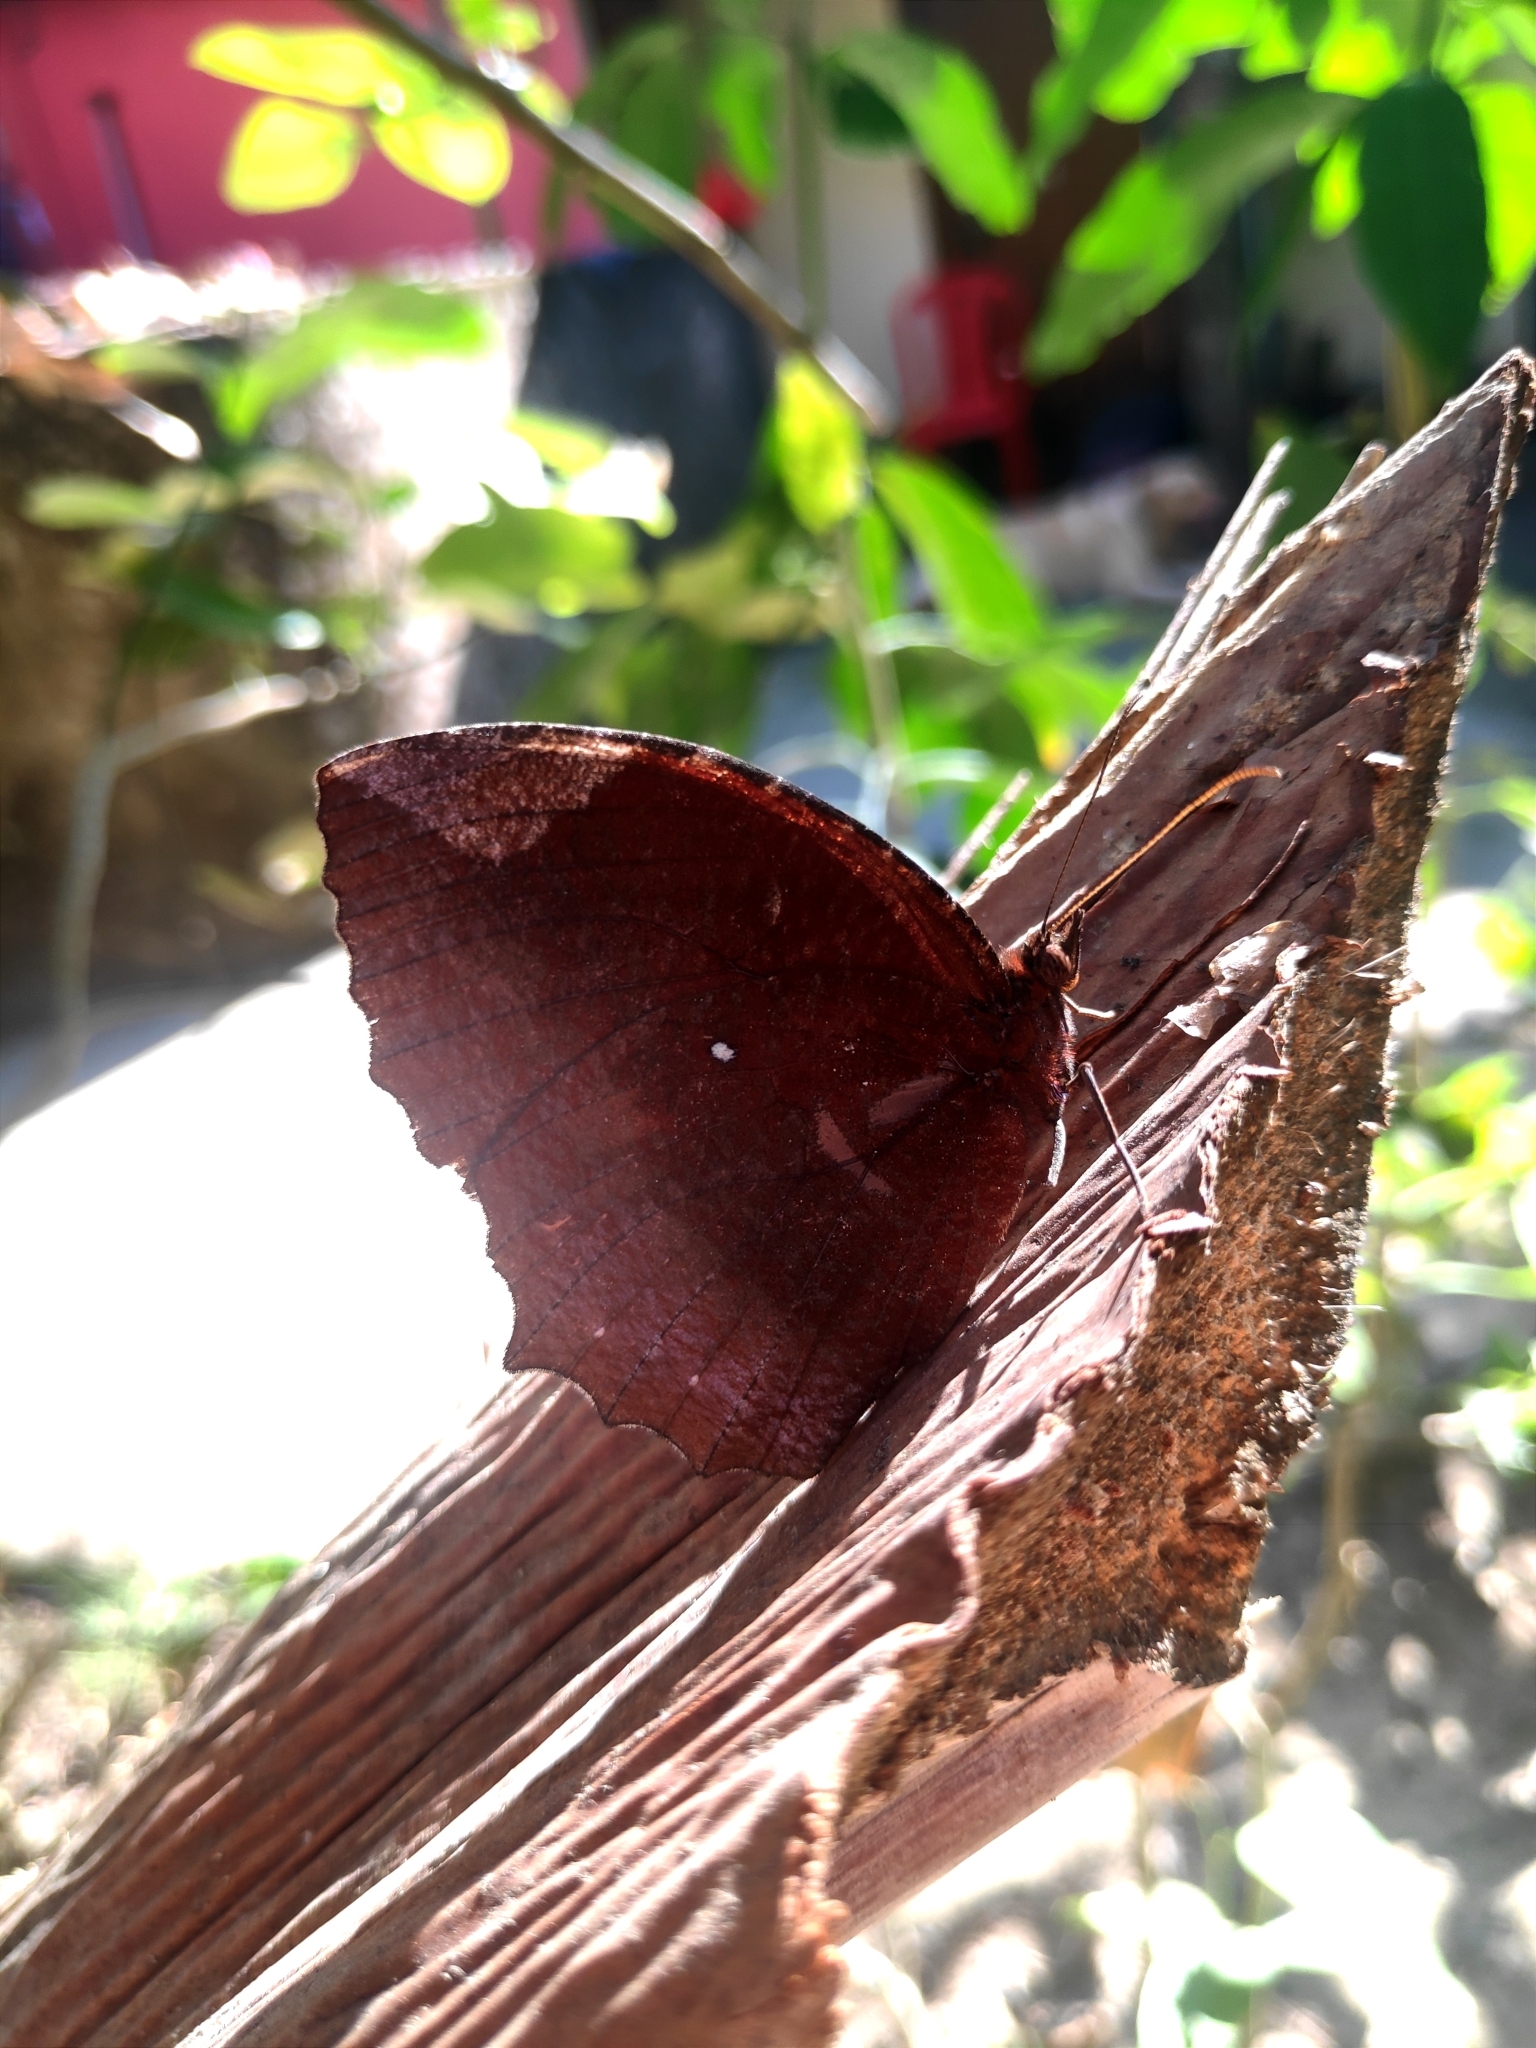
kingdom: Animalia
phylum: Arthropoda
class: Insecta
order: Lepidoptera
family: Nymphalidae
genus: Elymnias
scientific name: Elymnias hypermnestra
